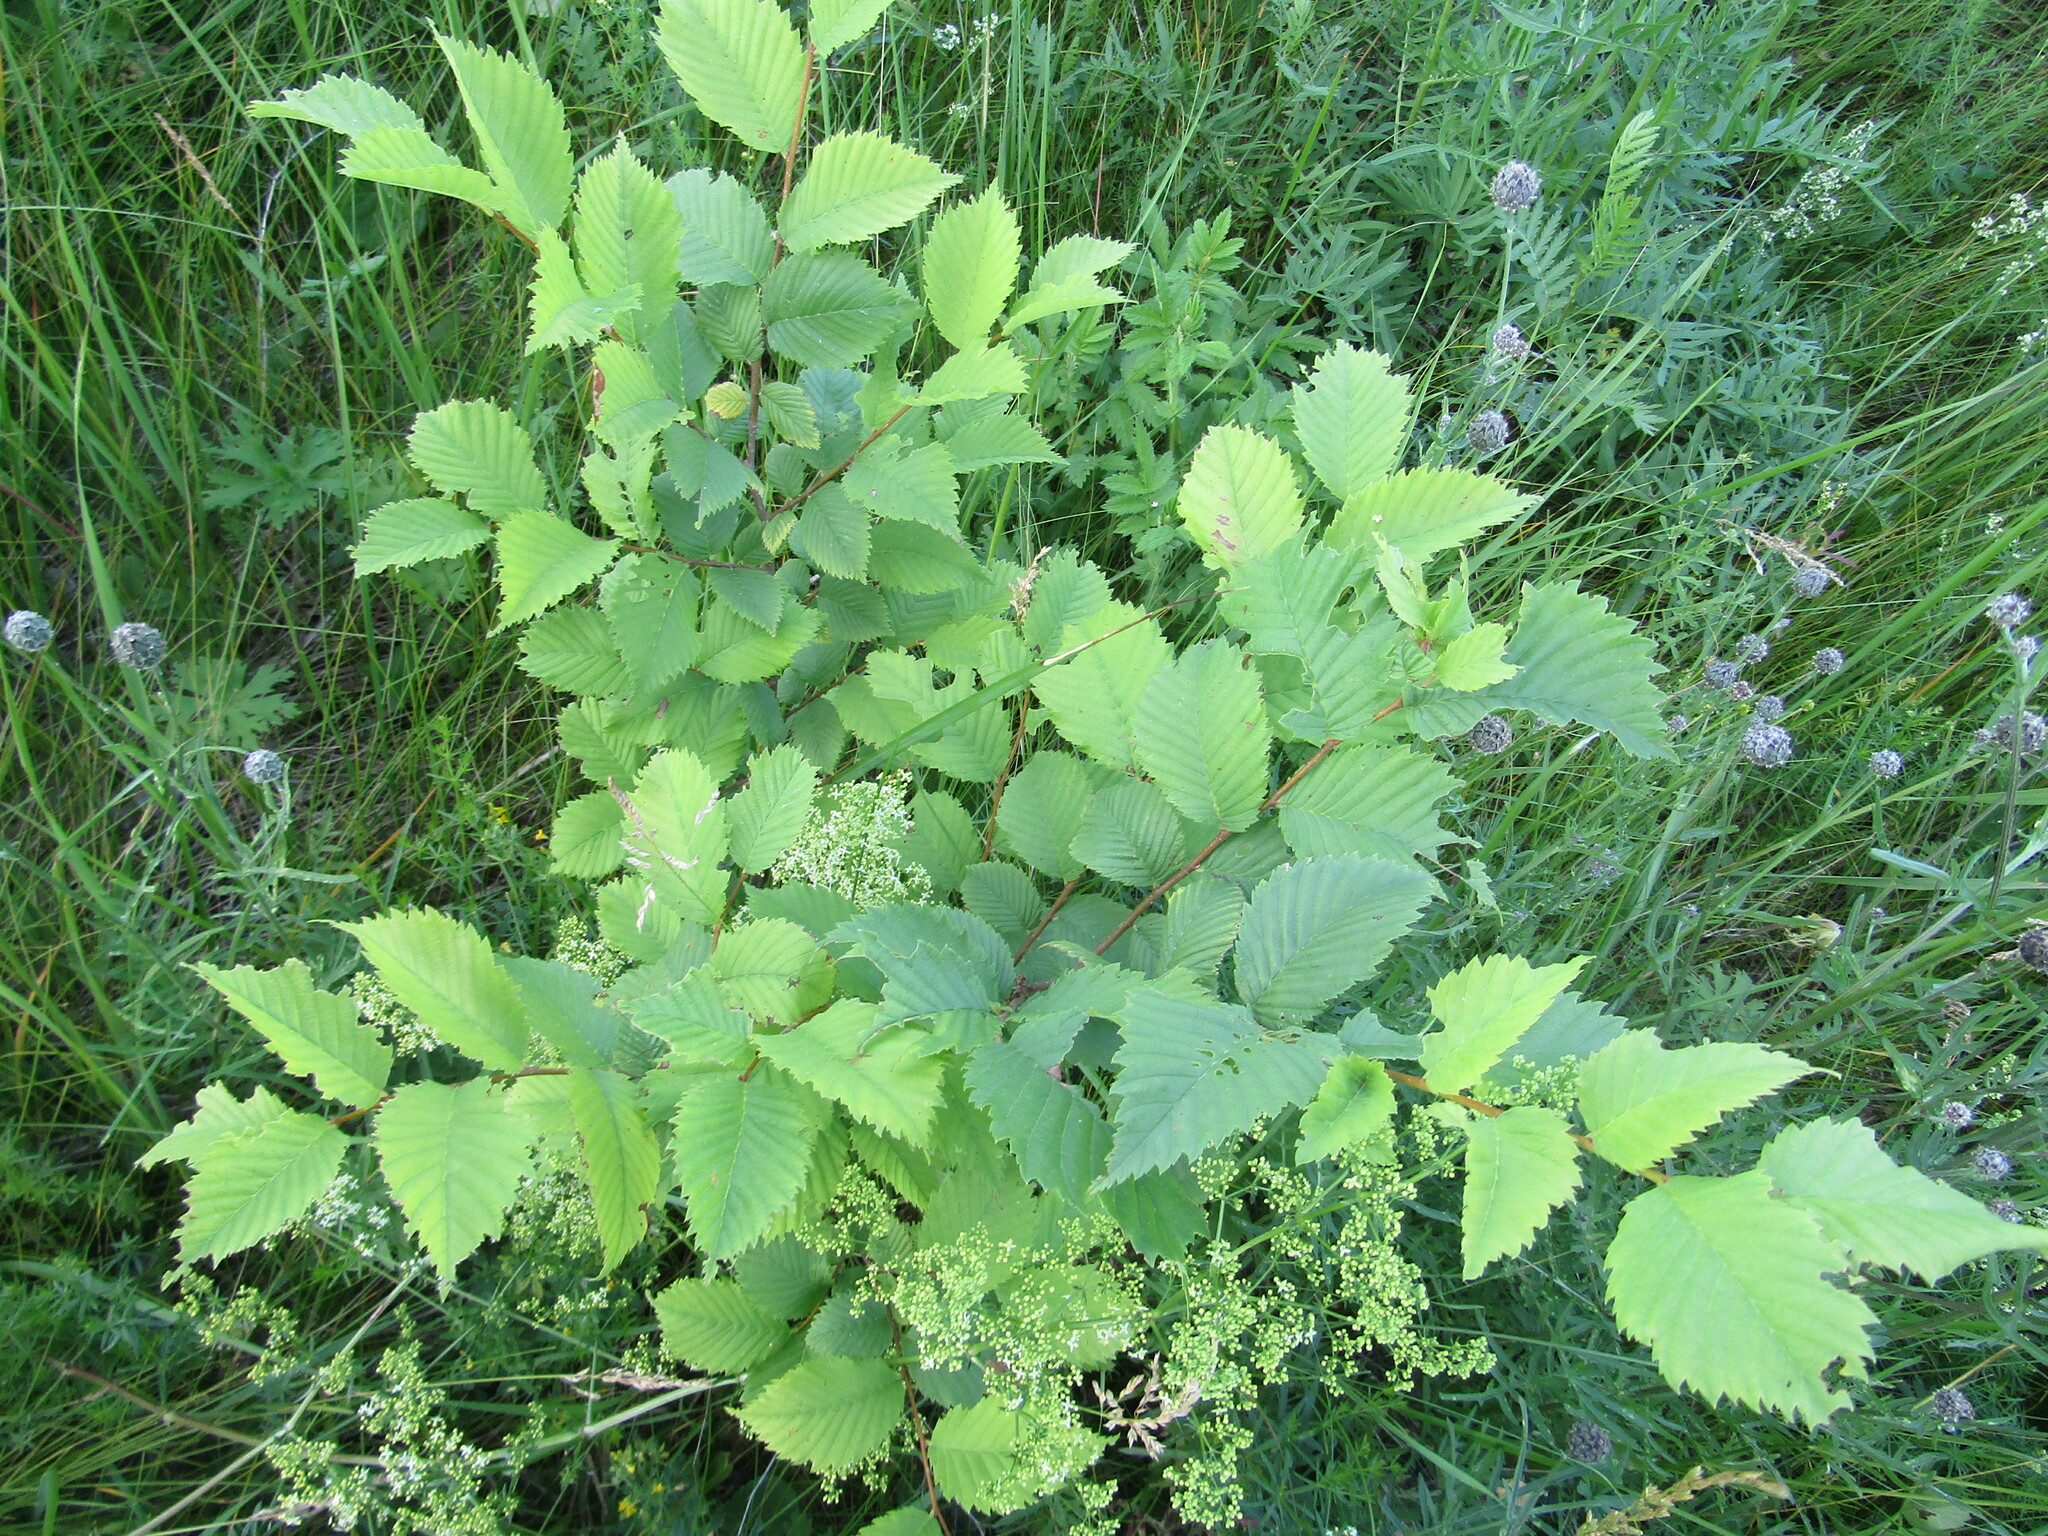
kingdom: Plantae
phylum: Tracheophyta
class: Magnoliopsida
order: Rosales
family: Ulmaceae
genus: Ulmus
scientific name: Ulmus laevis
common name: European white-elm
